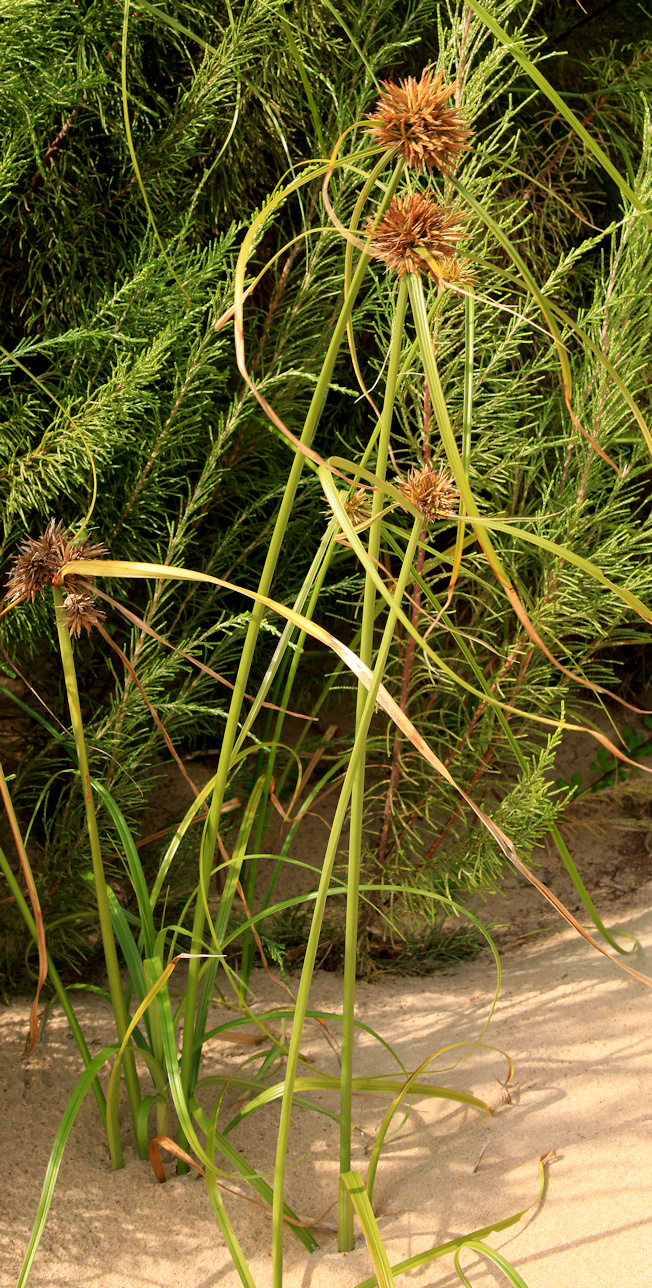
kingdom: Plantae
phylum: Tracheophyta
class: Liliopsida
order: Poales
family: Cyperaceae
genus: Cyperus
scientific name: Cyperus crassipes
